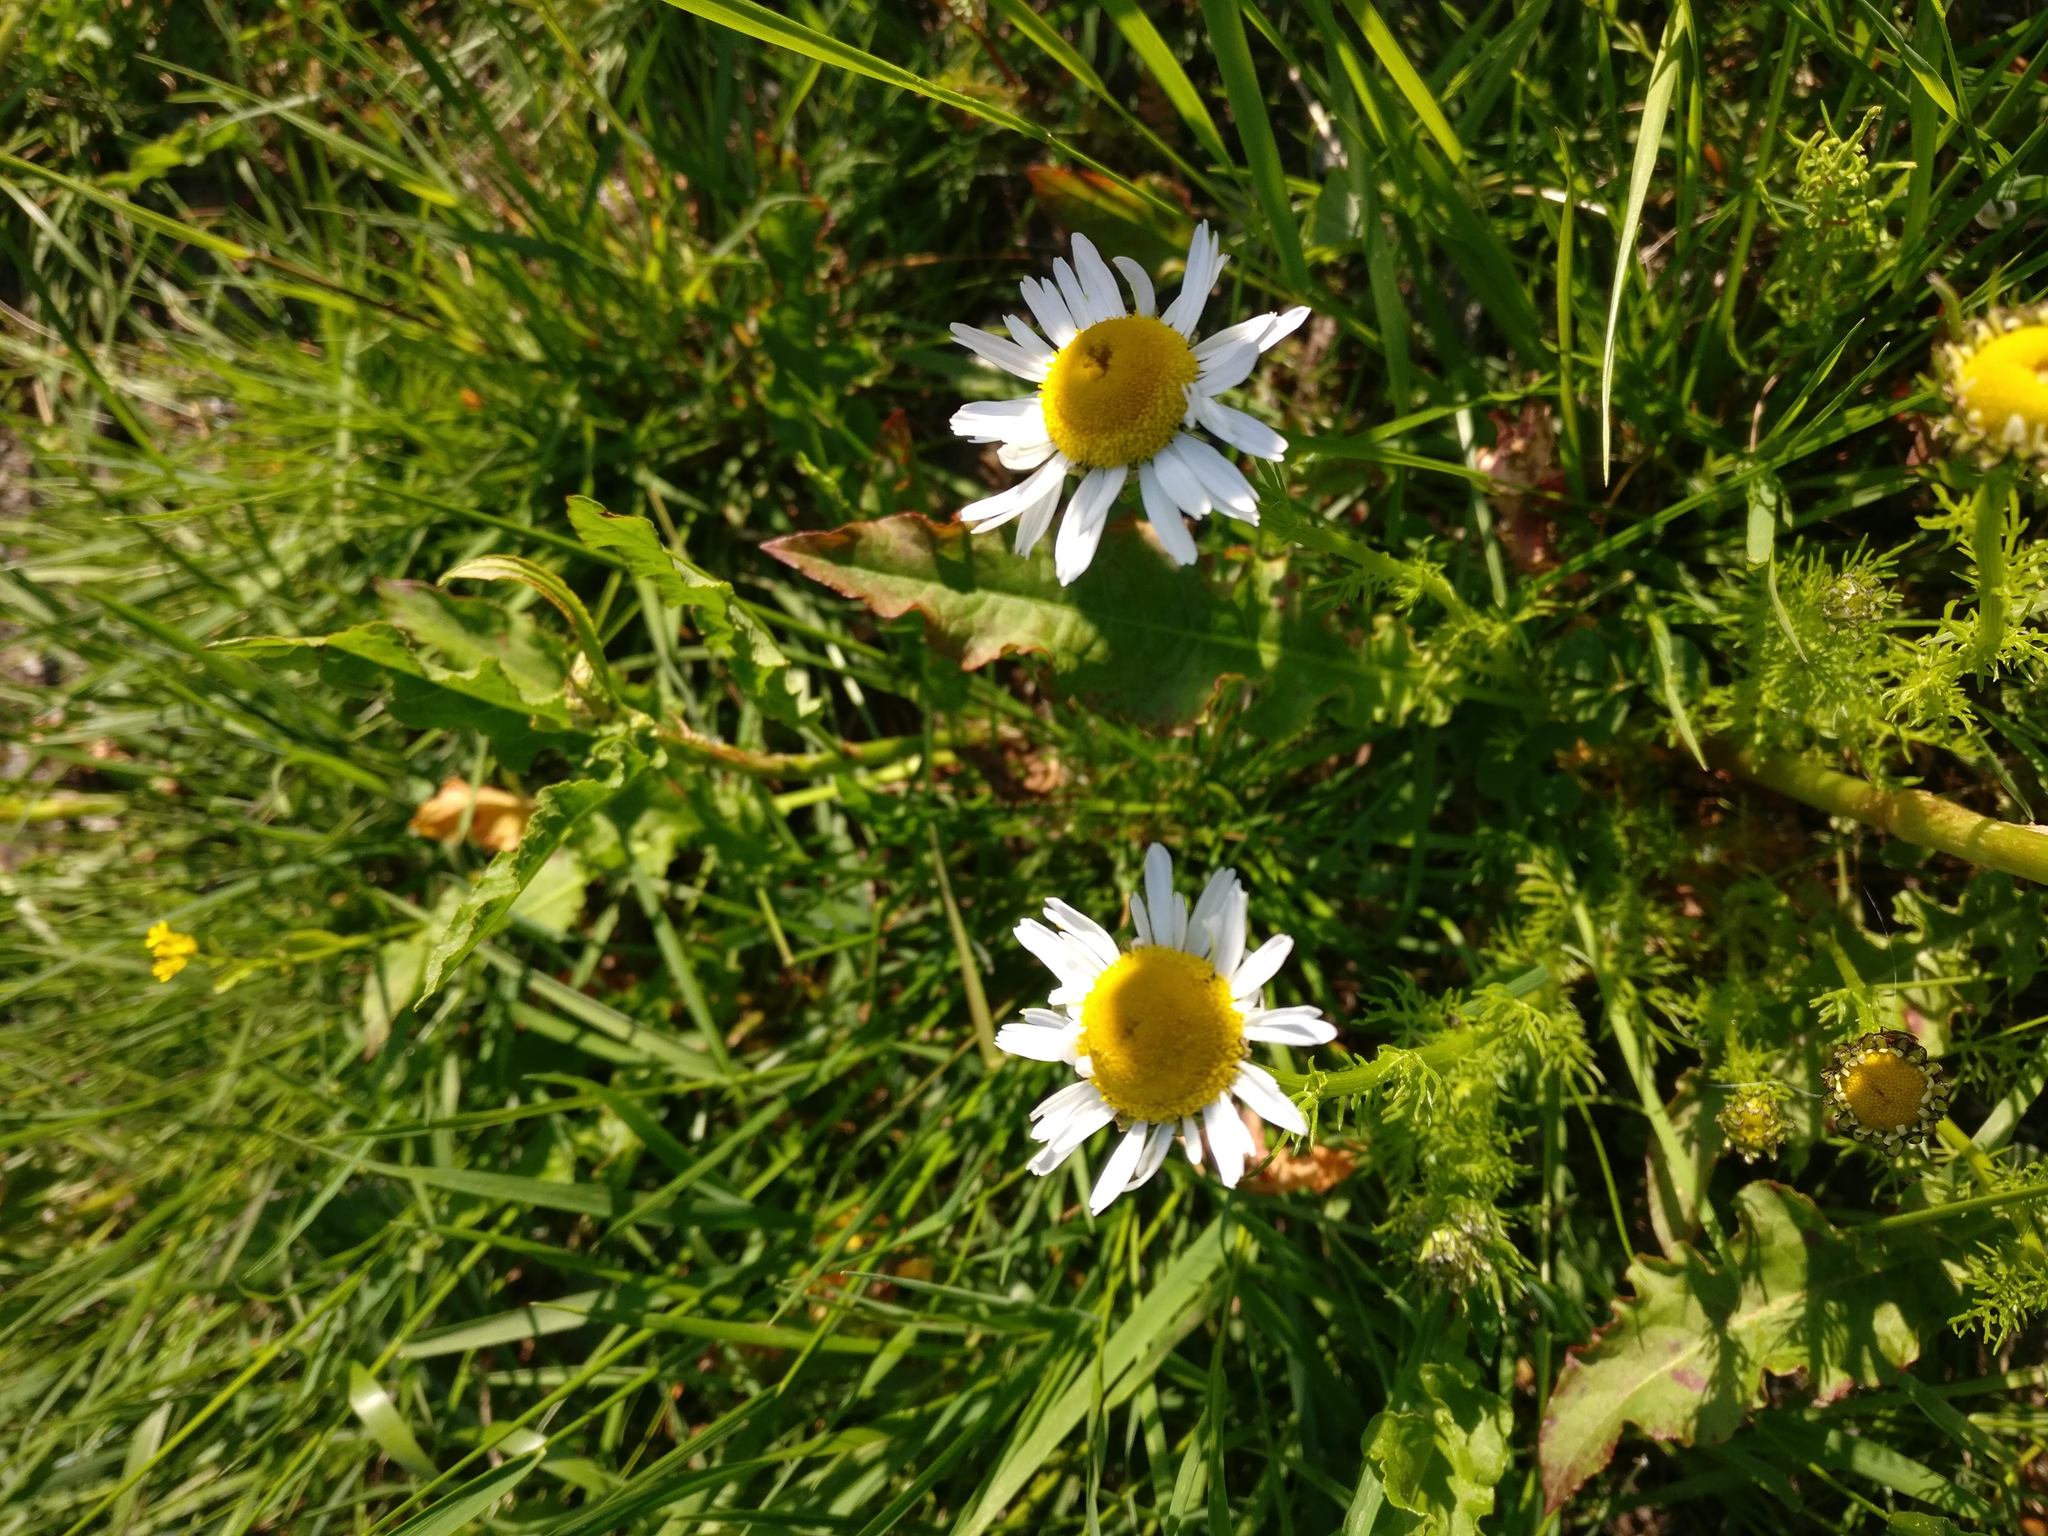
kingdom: Plantae
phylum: Tracheophyta
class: Magnoliopsida
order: Asterales
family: Asteraceae
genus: Tripleurospermum
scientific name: Tripleurospermum inodorum
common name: Scentless mayweed
